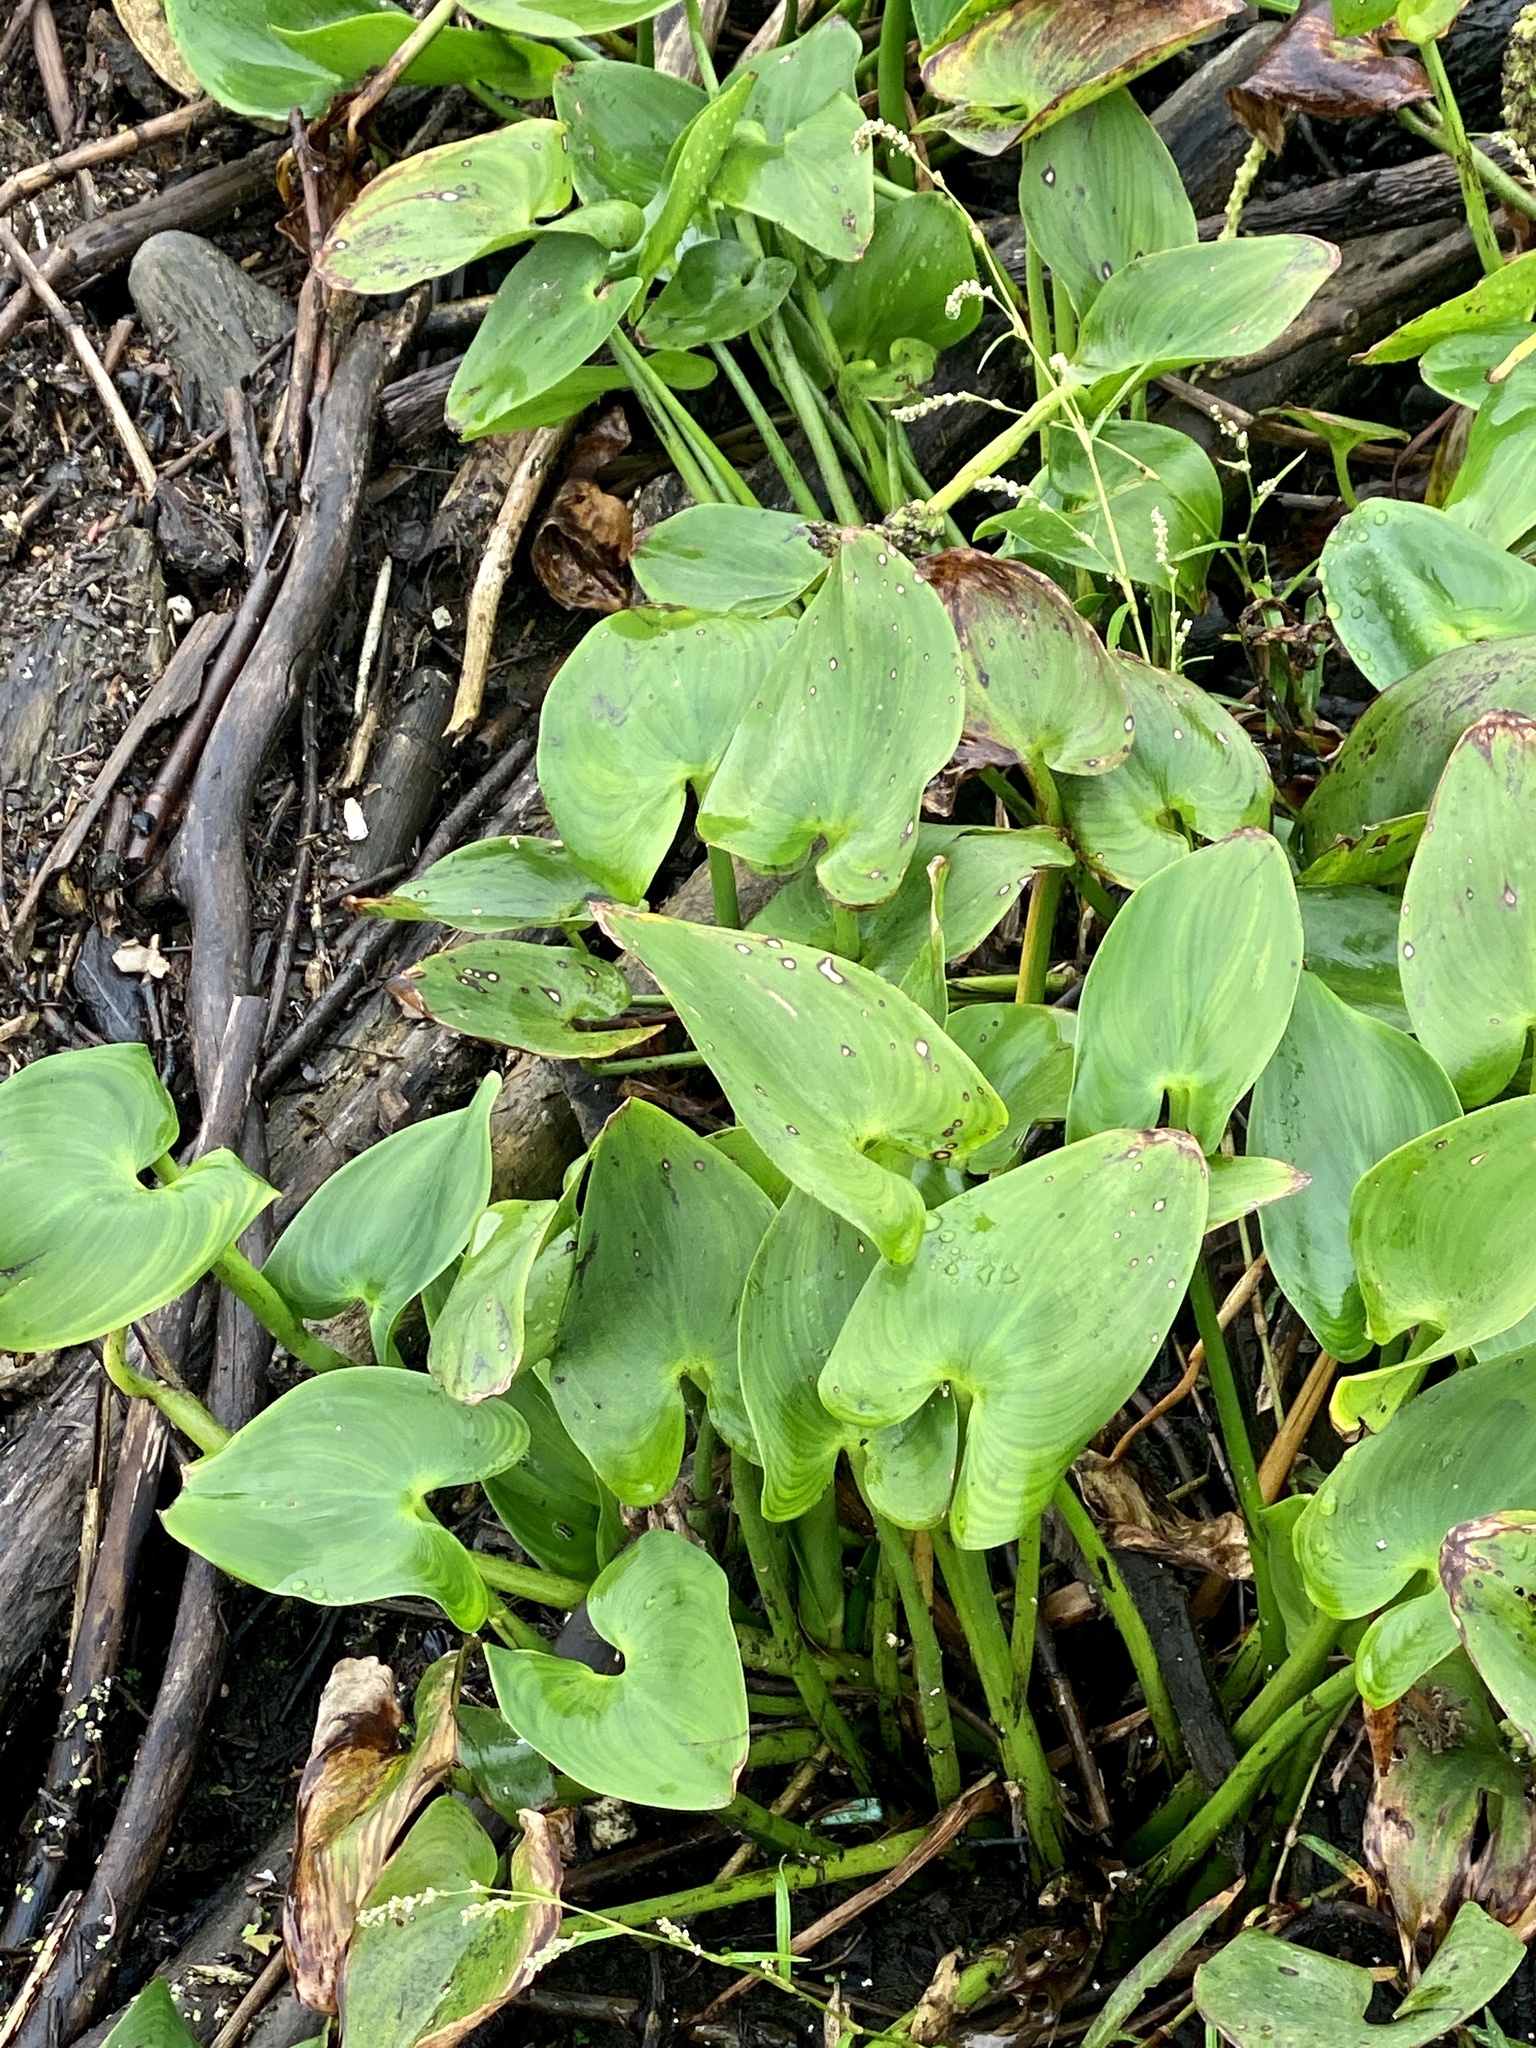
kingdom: Plantae
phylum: Tracheophyta
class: Liliopsida
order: Commelinales
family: Pontederiaceae
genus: Pontederia
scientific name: Pontederia cordata
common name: Pickerelweed
